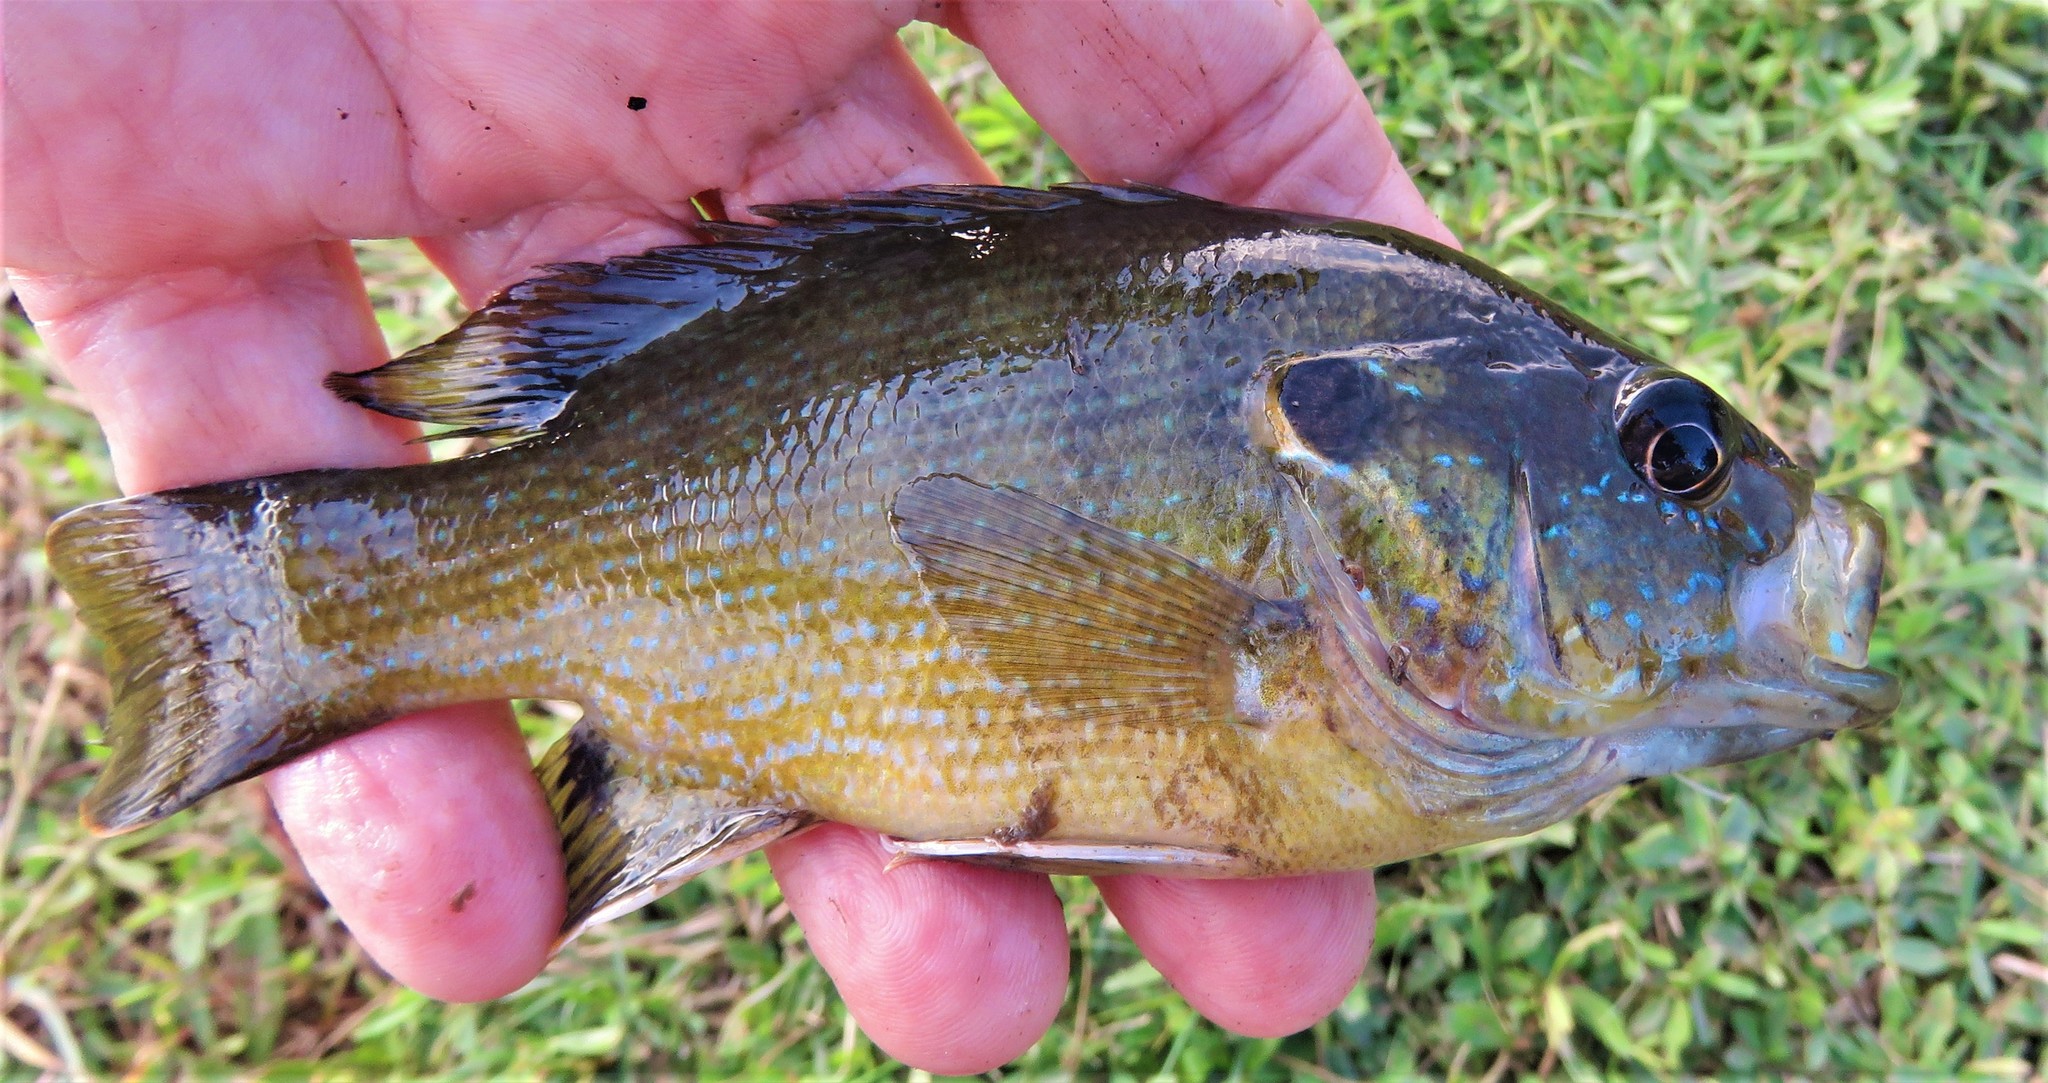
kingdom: Animalia
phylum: Chordata
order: Perciformes
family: Centrarchidae
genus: Lepomis
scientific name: Lepomis cyanellus
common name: Green sunfish
